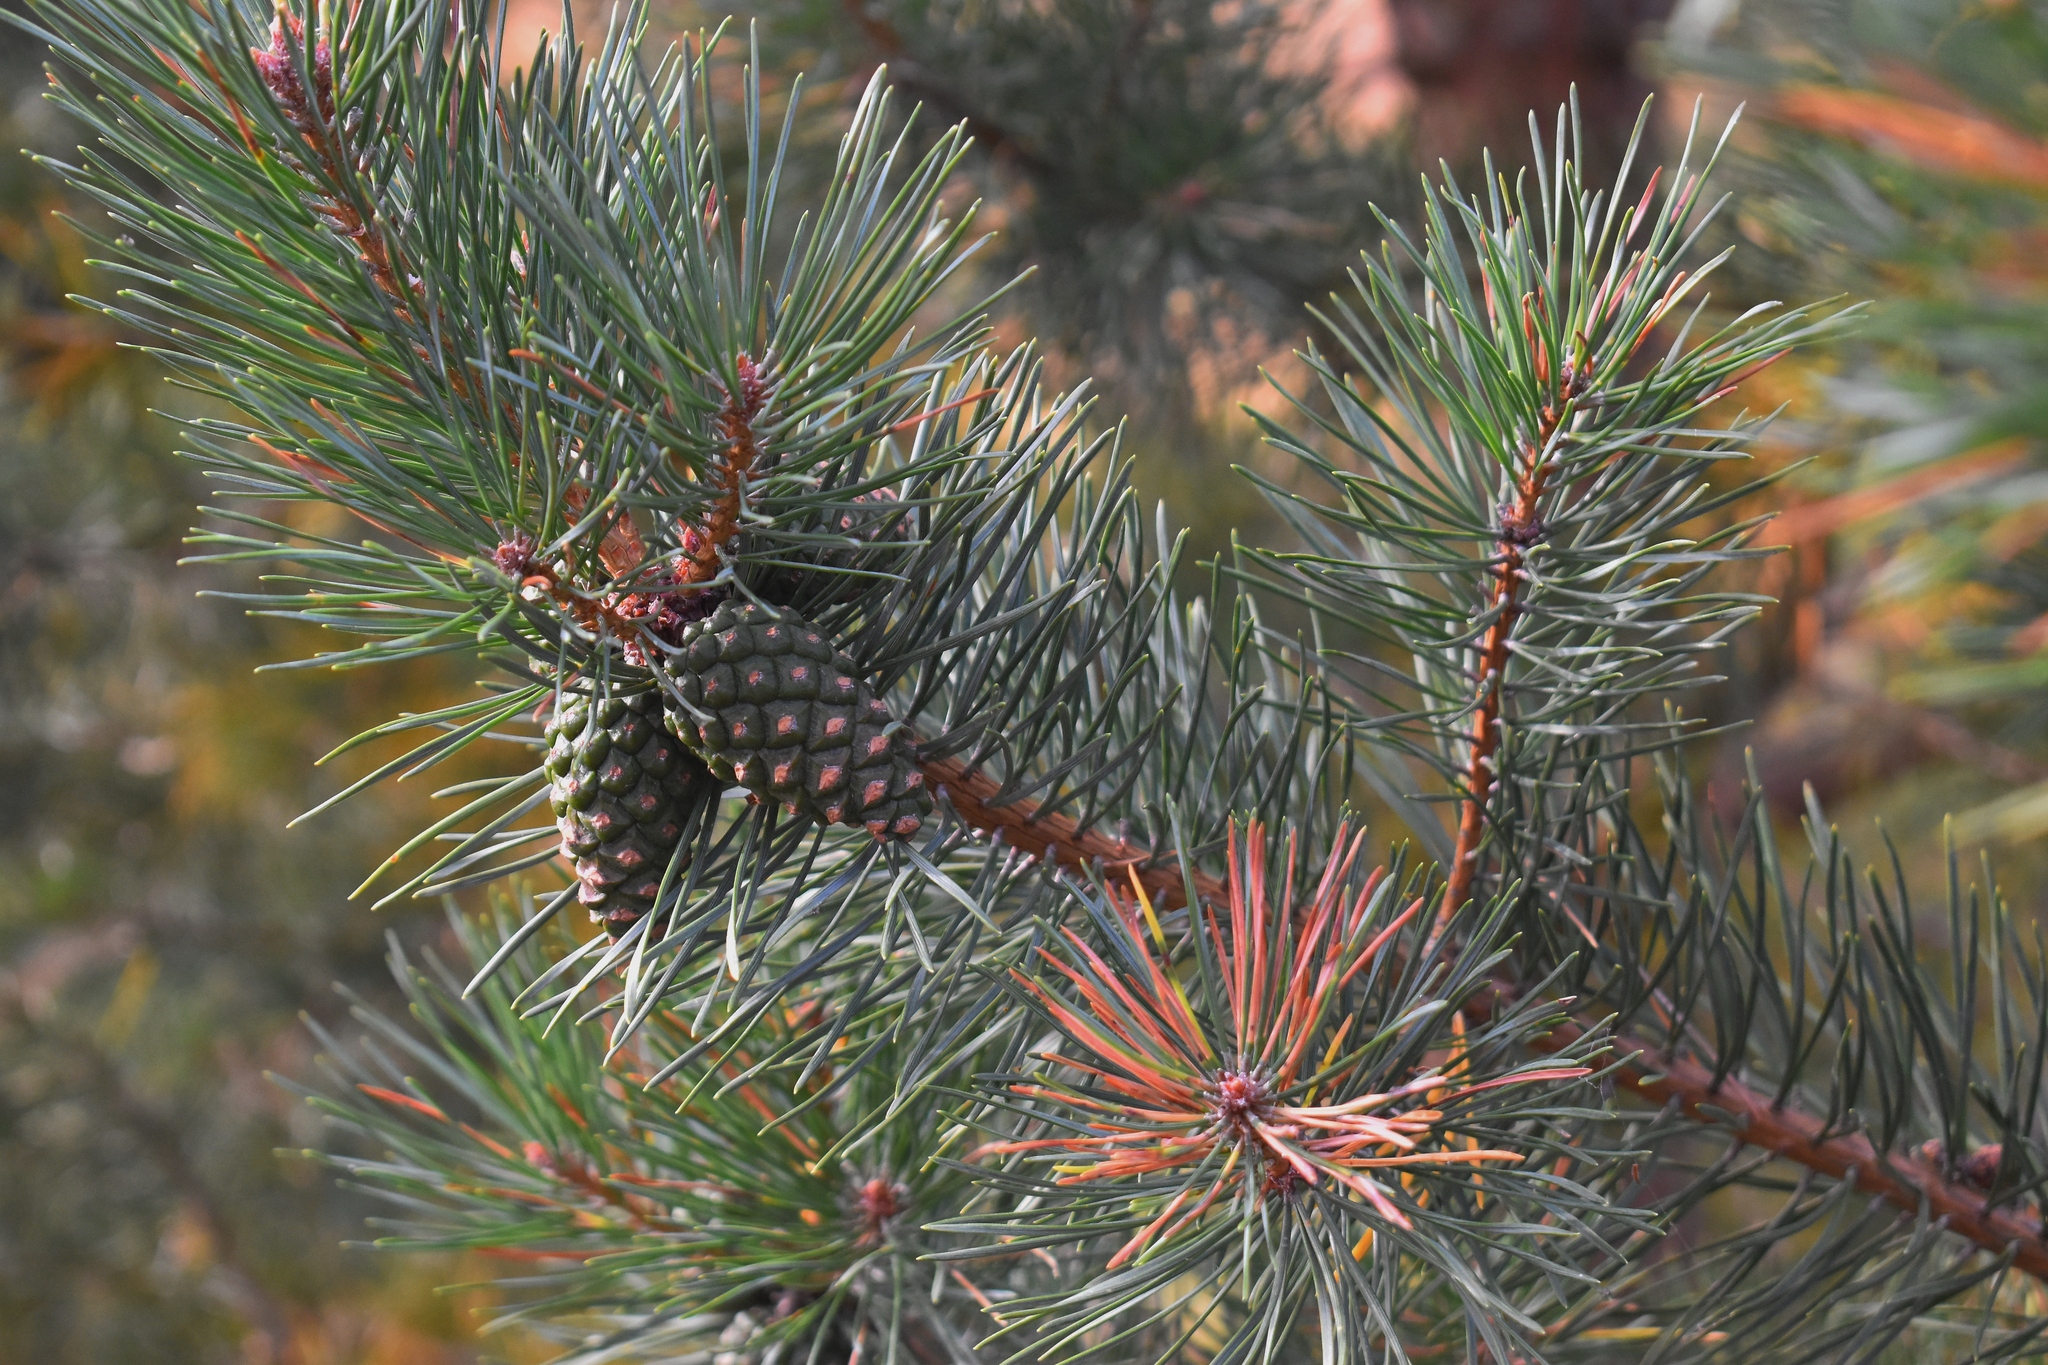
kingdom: Plantae
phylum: Tracheophyta
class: Pinopsida
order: Pinales
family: Pinaceae
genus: Pinus
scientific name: Pinus sylvestris
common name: Scots pine
